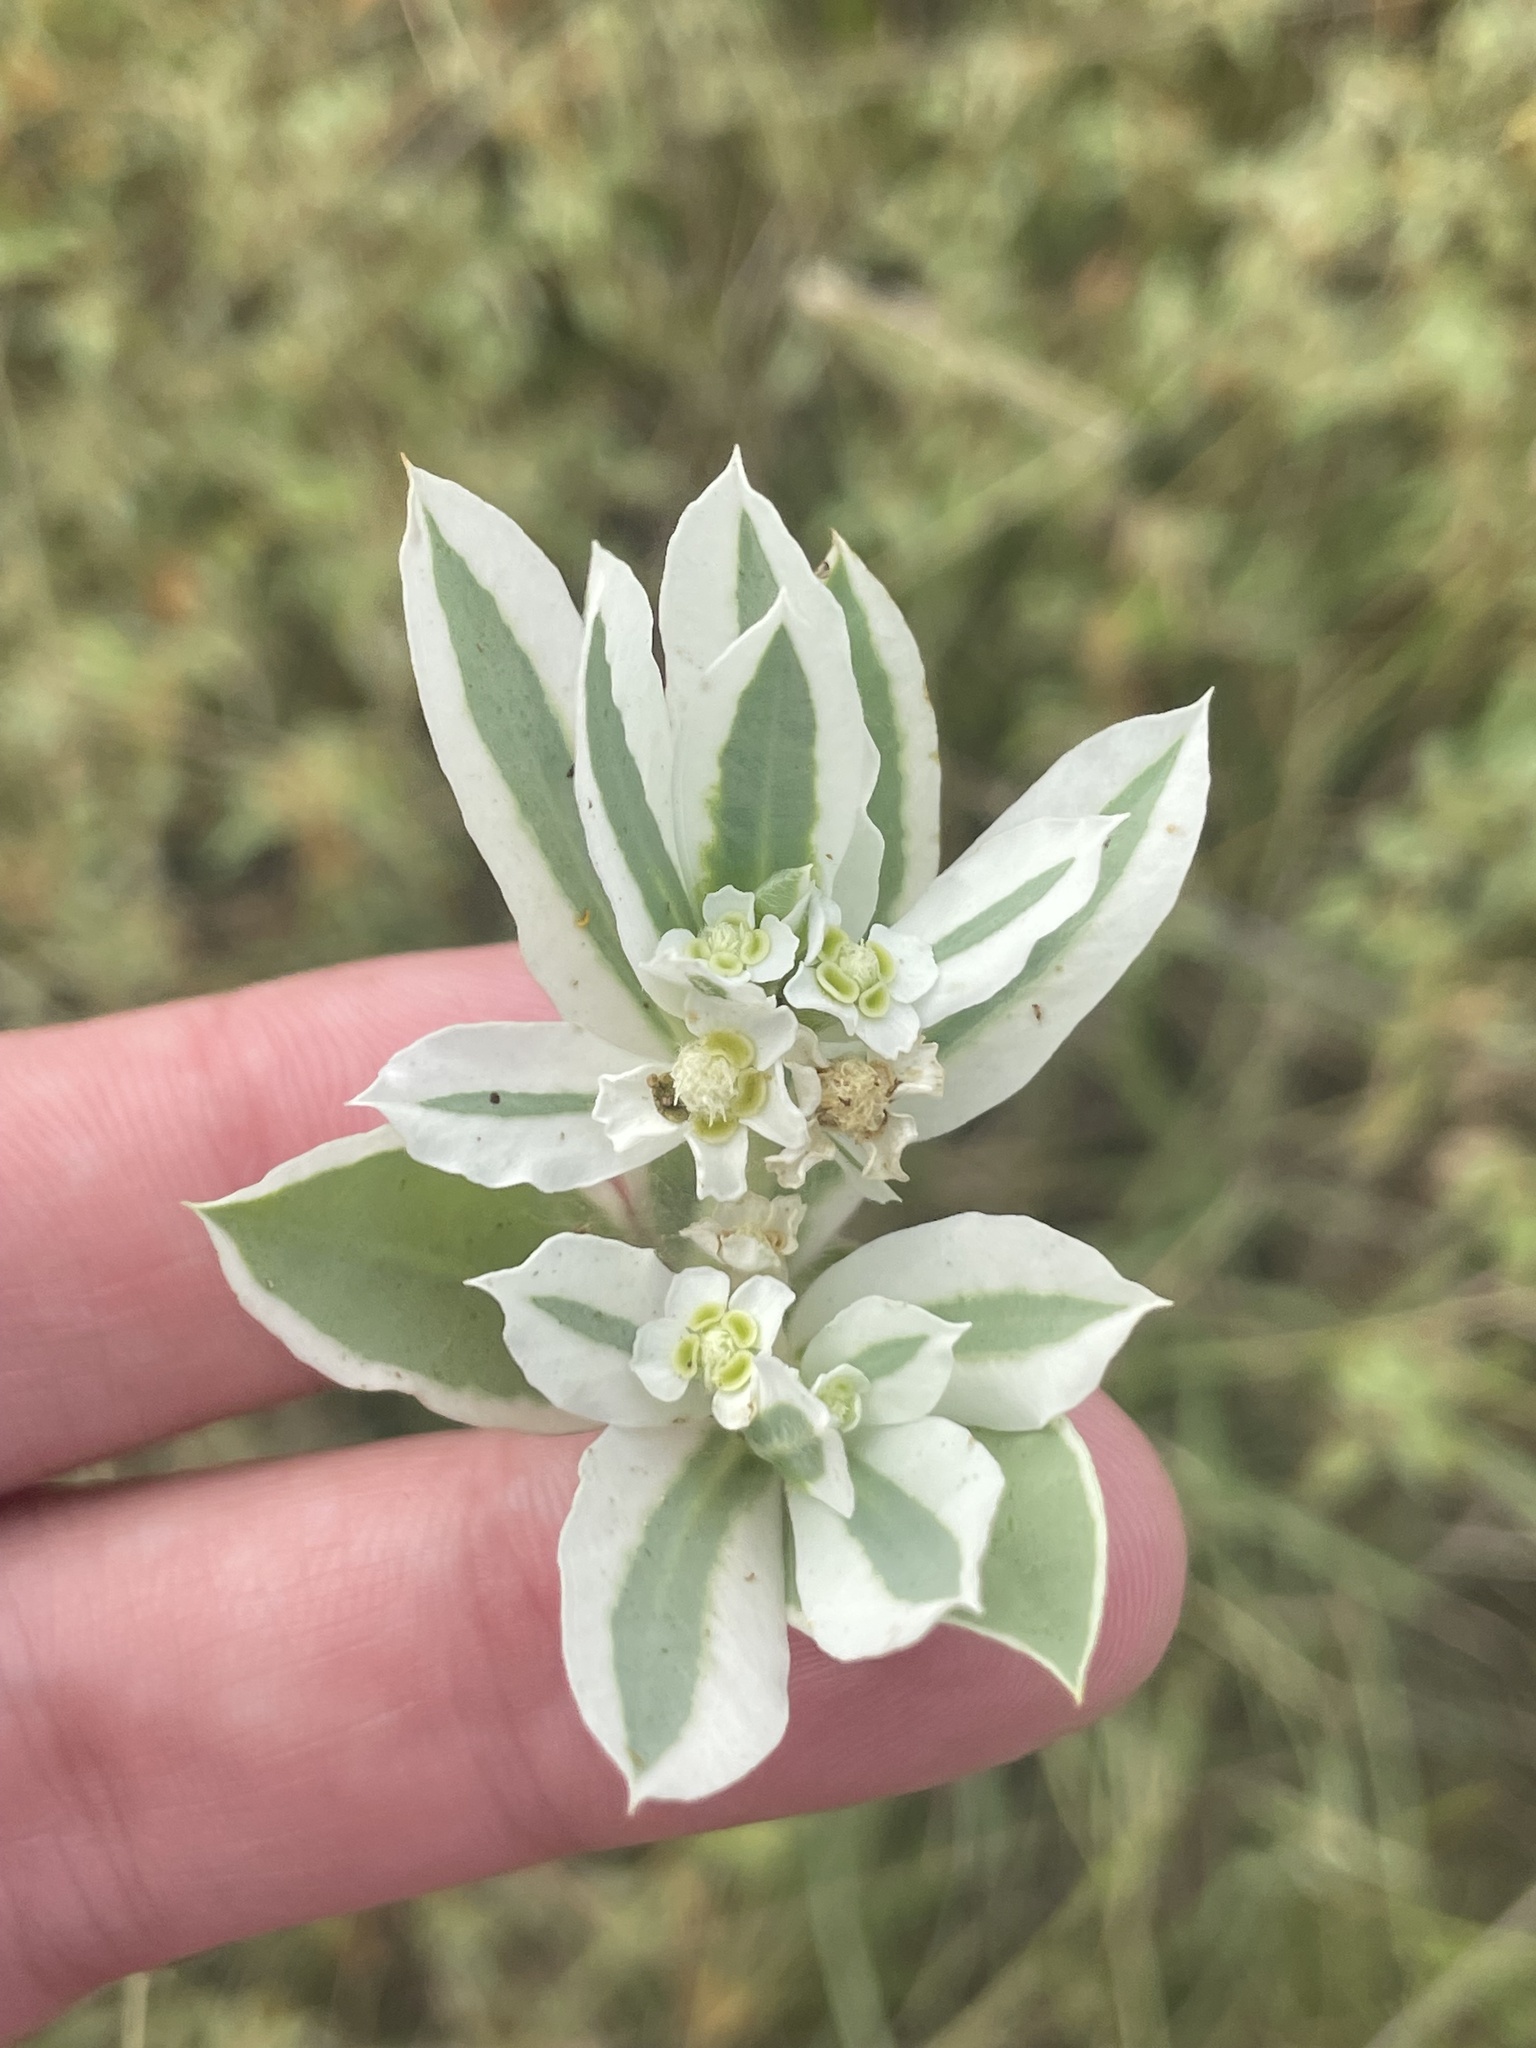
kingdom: Plantae
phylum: Tracheophyta
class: Magnoliopsida
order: Malpighiales
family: Euphorbiaceae
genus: Euphorbia
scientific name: Euphorbia marginata
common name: Ghostweed
